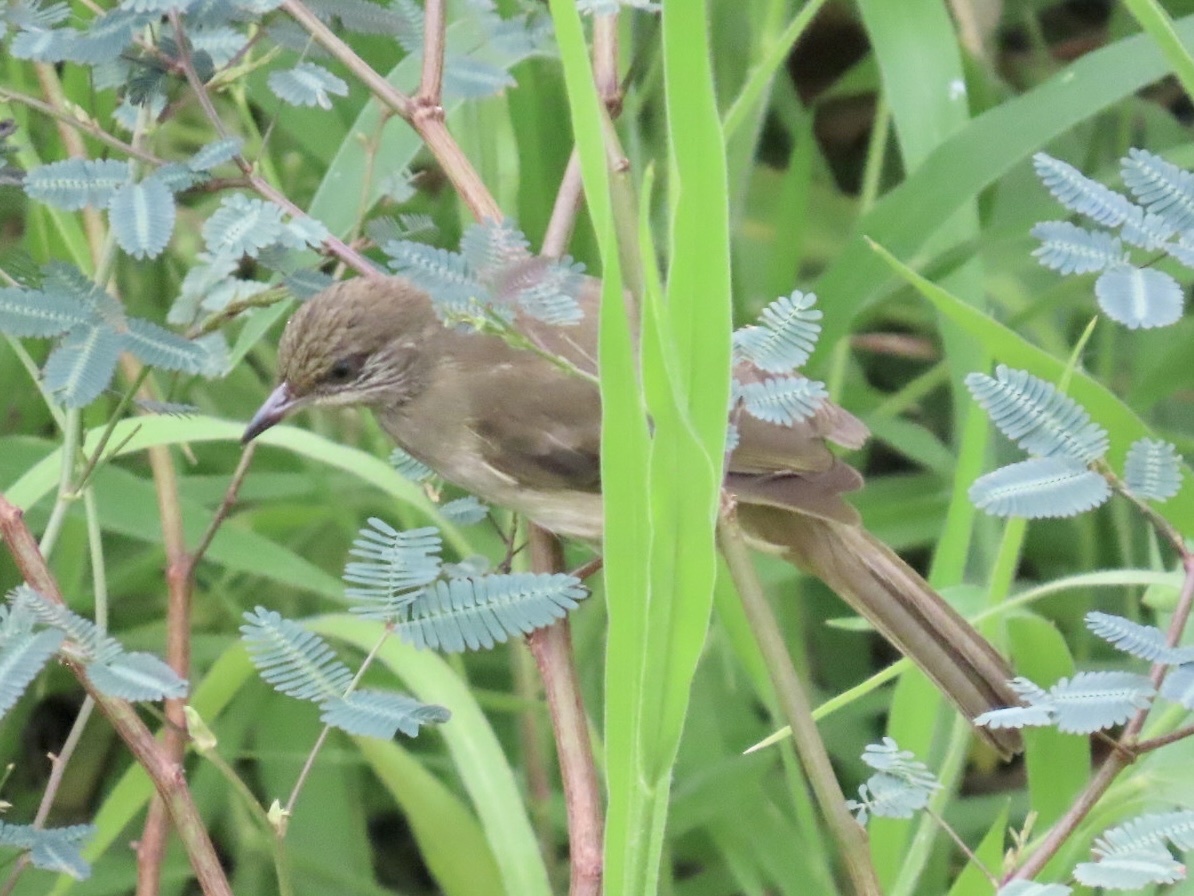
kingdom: Animalia
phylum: Chordata
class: Aves
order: Passeriformes
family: Pycnonotidae
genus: Pycnonotus
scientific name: Pycnonotus blanfordi
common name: Streak-eared bulbul
